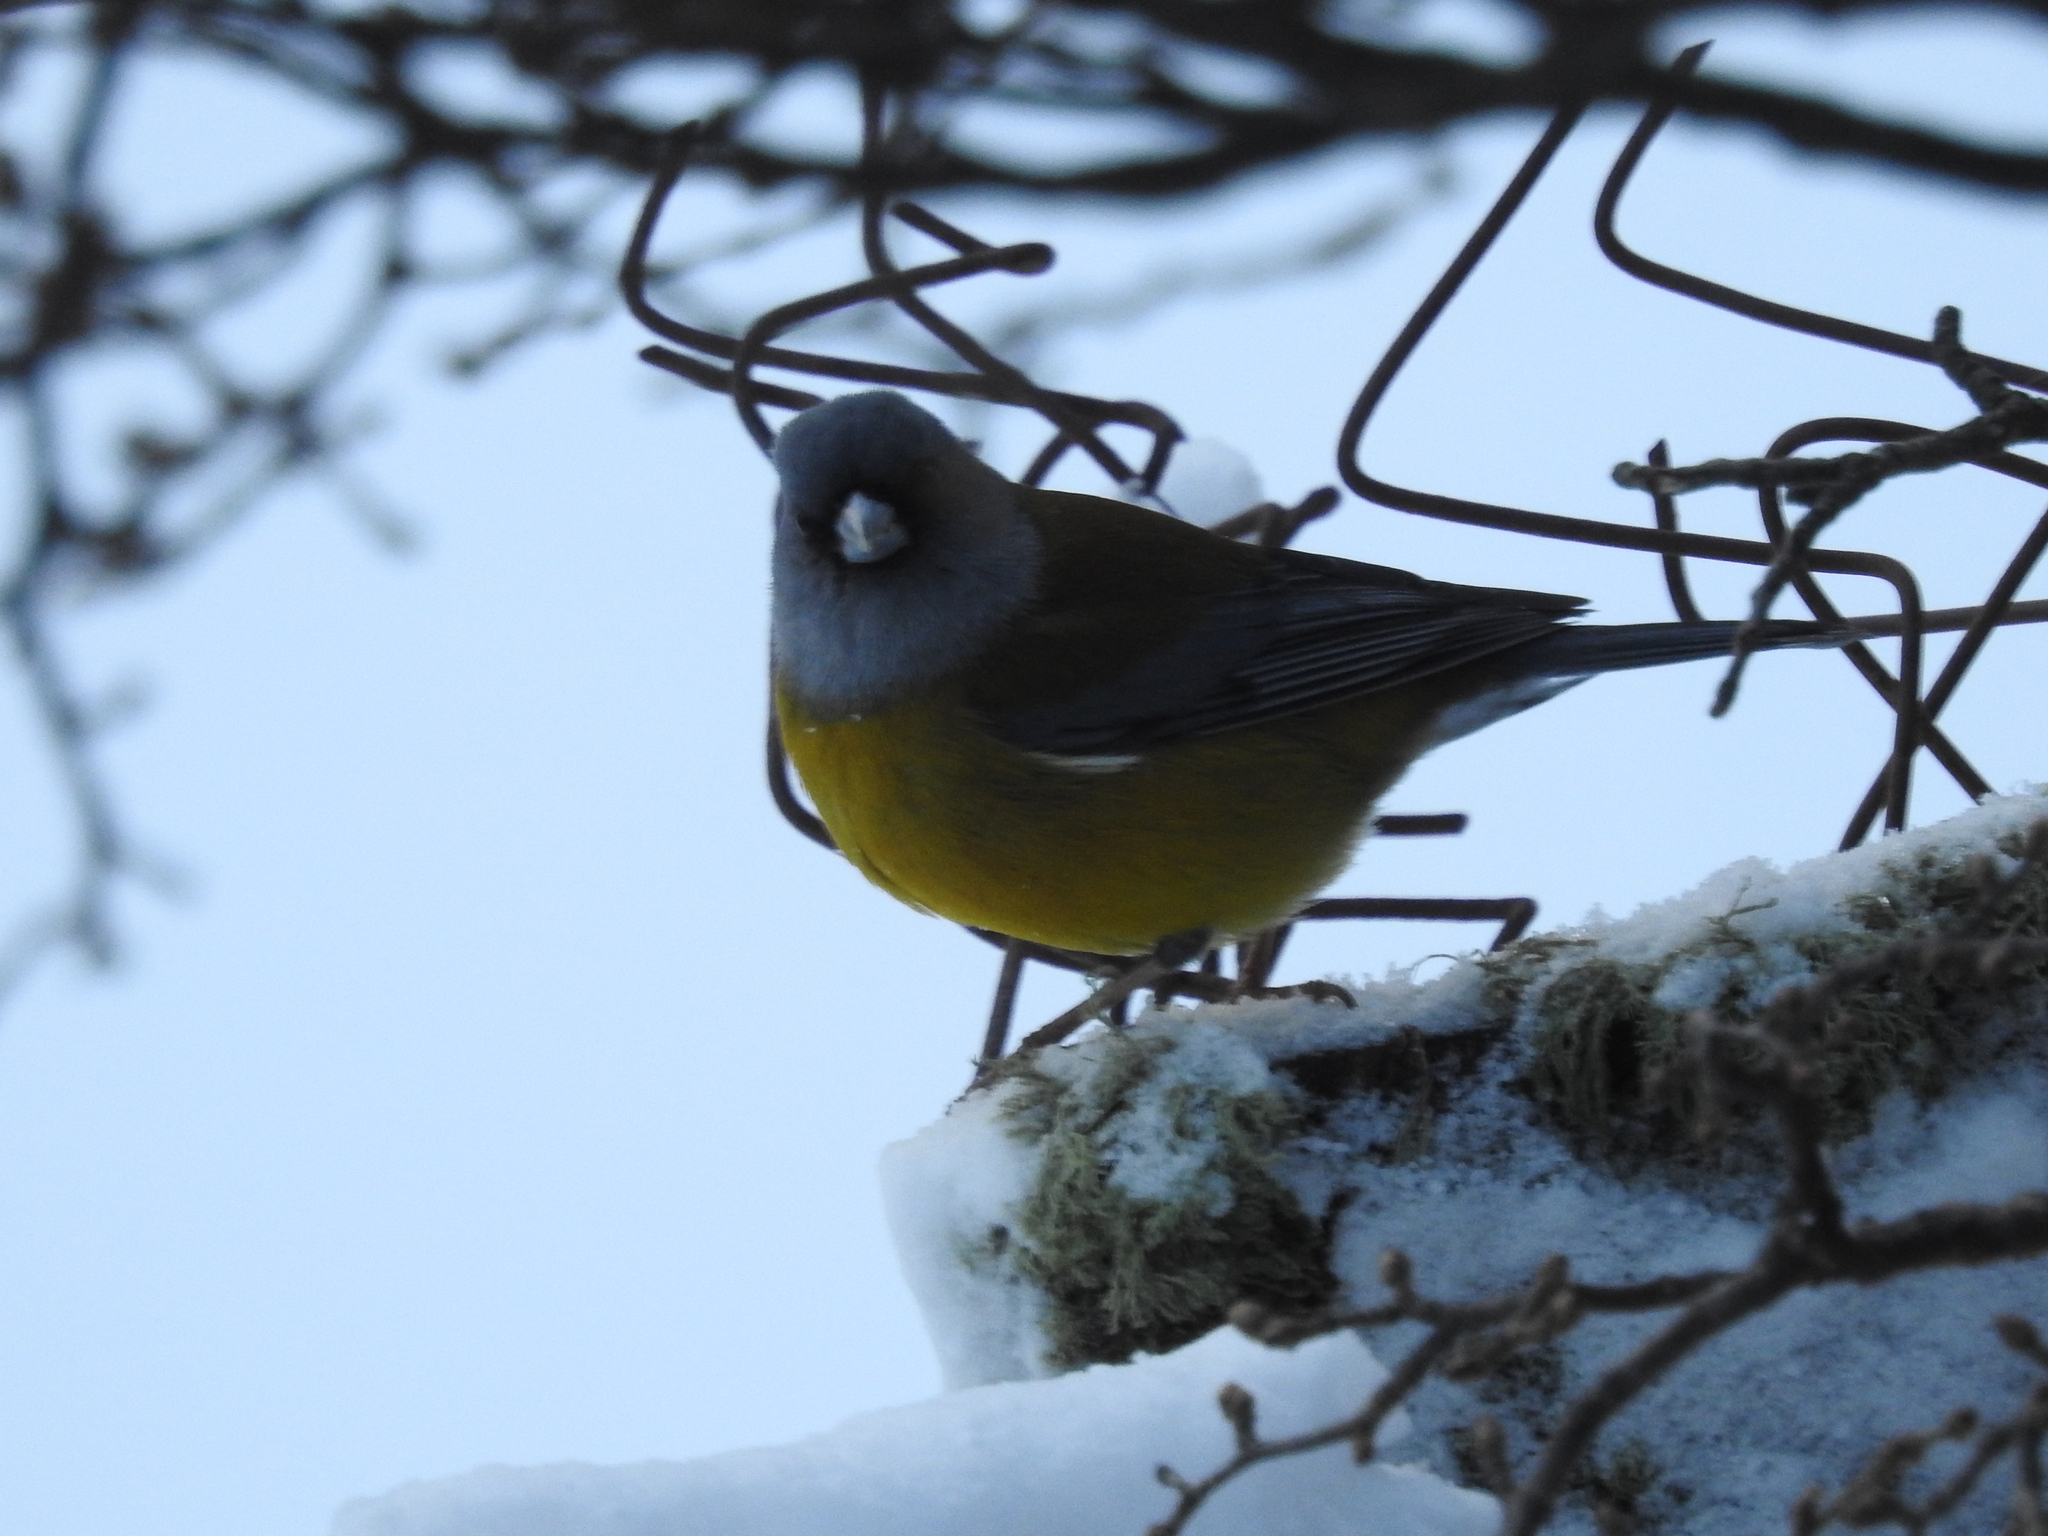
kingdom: Animalia
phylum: Chordata
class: Aves
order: Passeriformes
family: Thraupidae
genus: Phrygilus
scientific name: Phrygilus patagonicus
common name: Patagonian sierra finch
